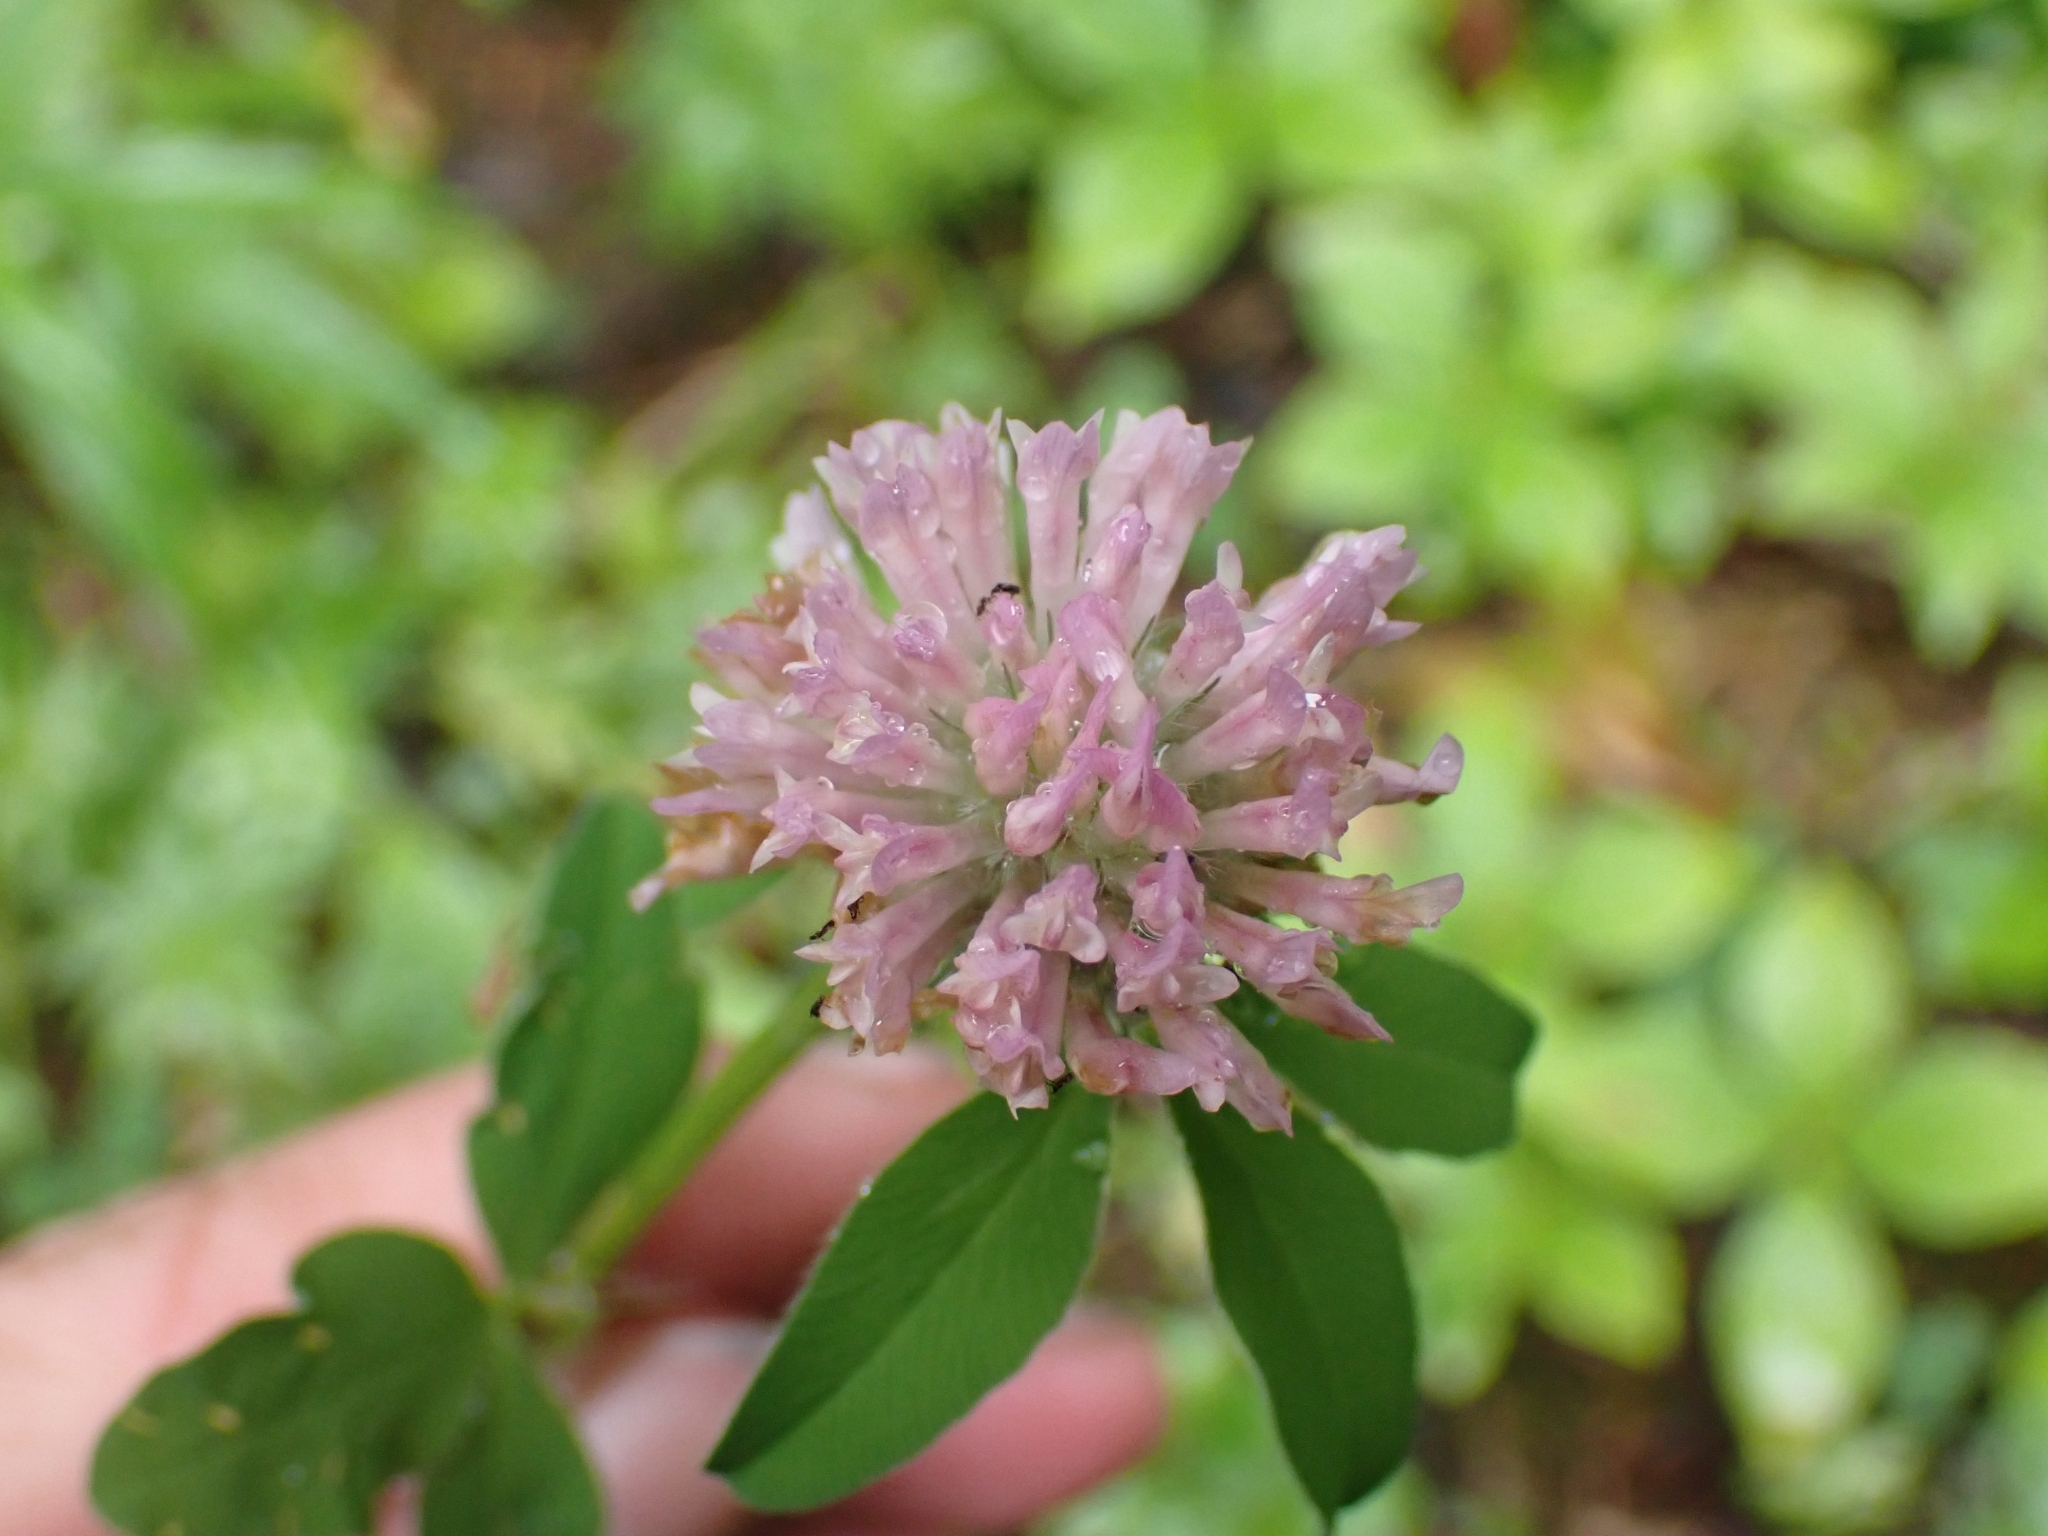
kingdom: Plantae
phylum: Tracheophyta
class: Magnoliopsida
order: Fabales
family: Fabaceae
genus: Trifolium
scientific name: Trifolium pratense
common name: Red clover
